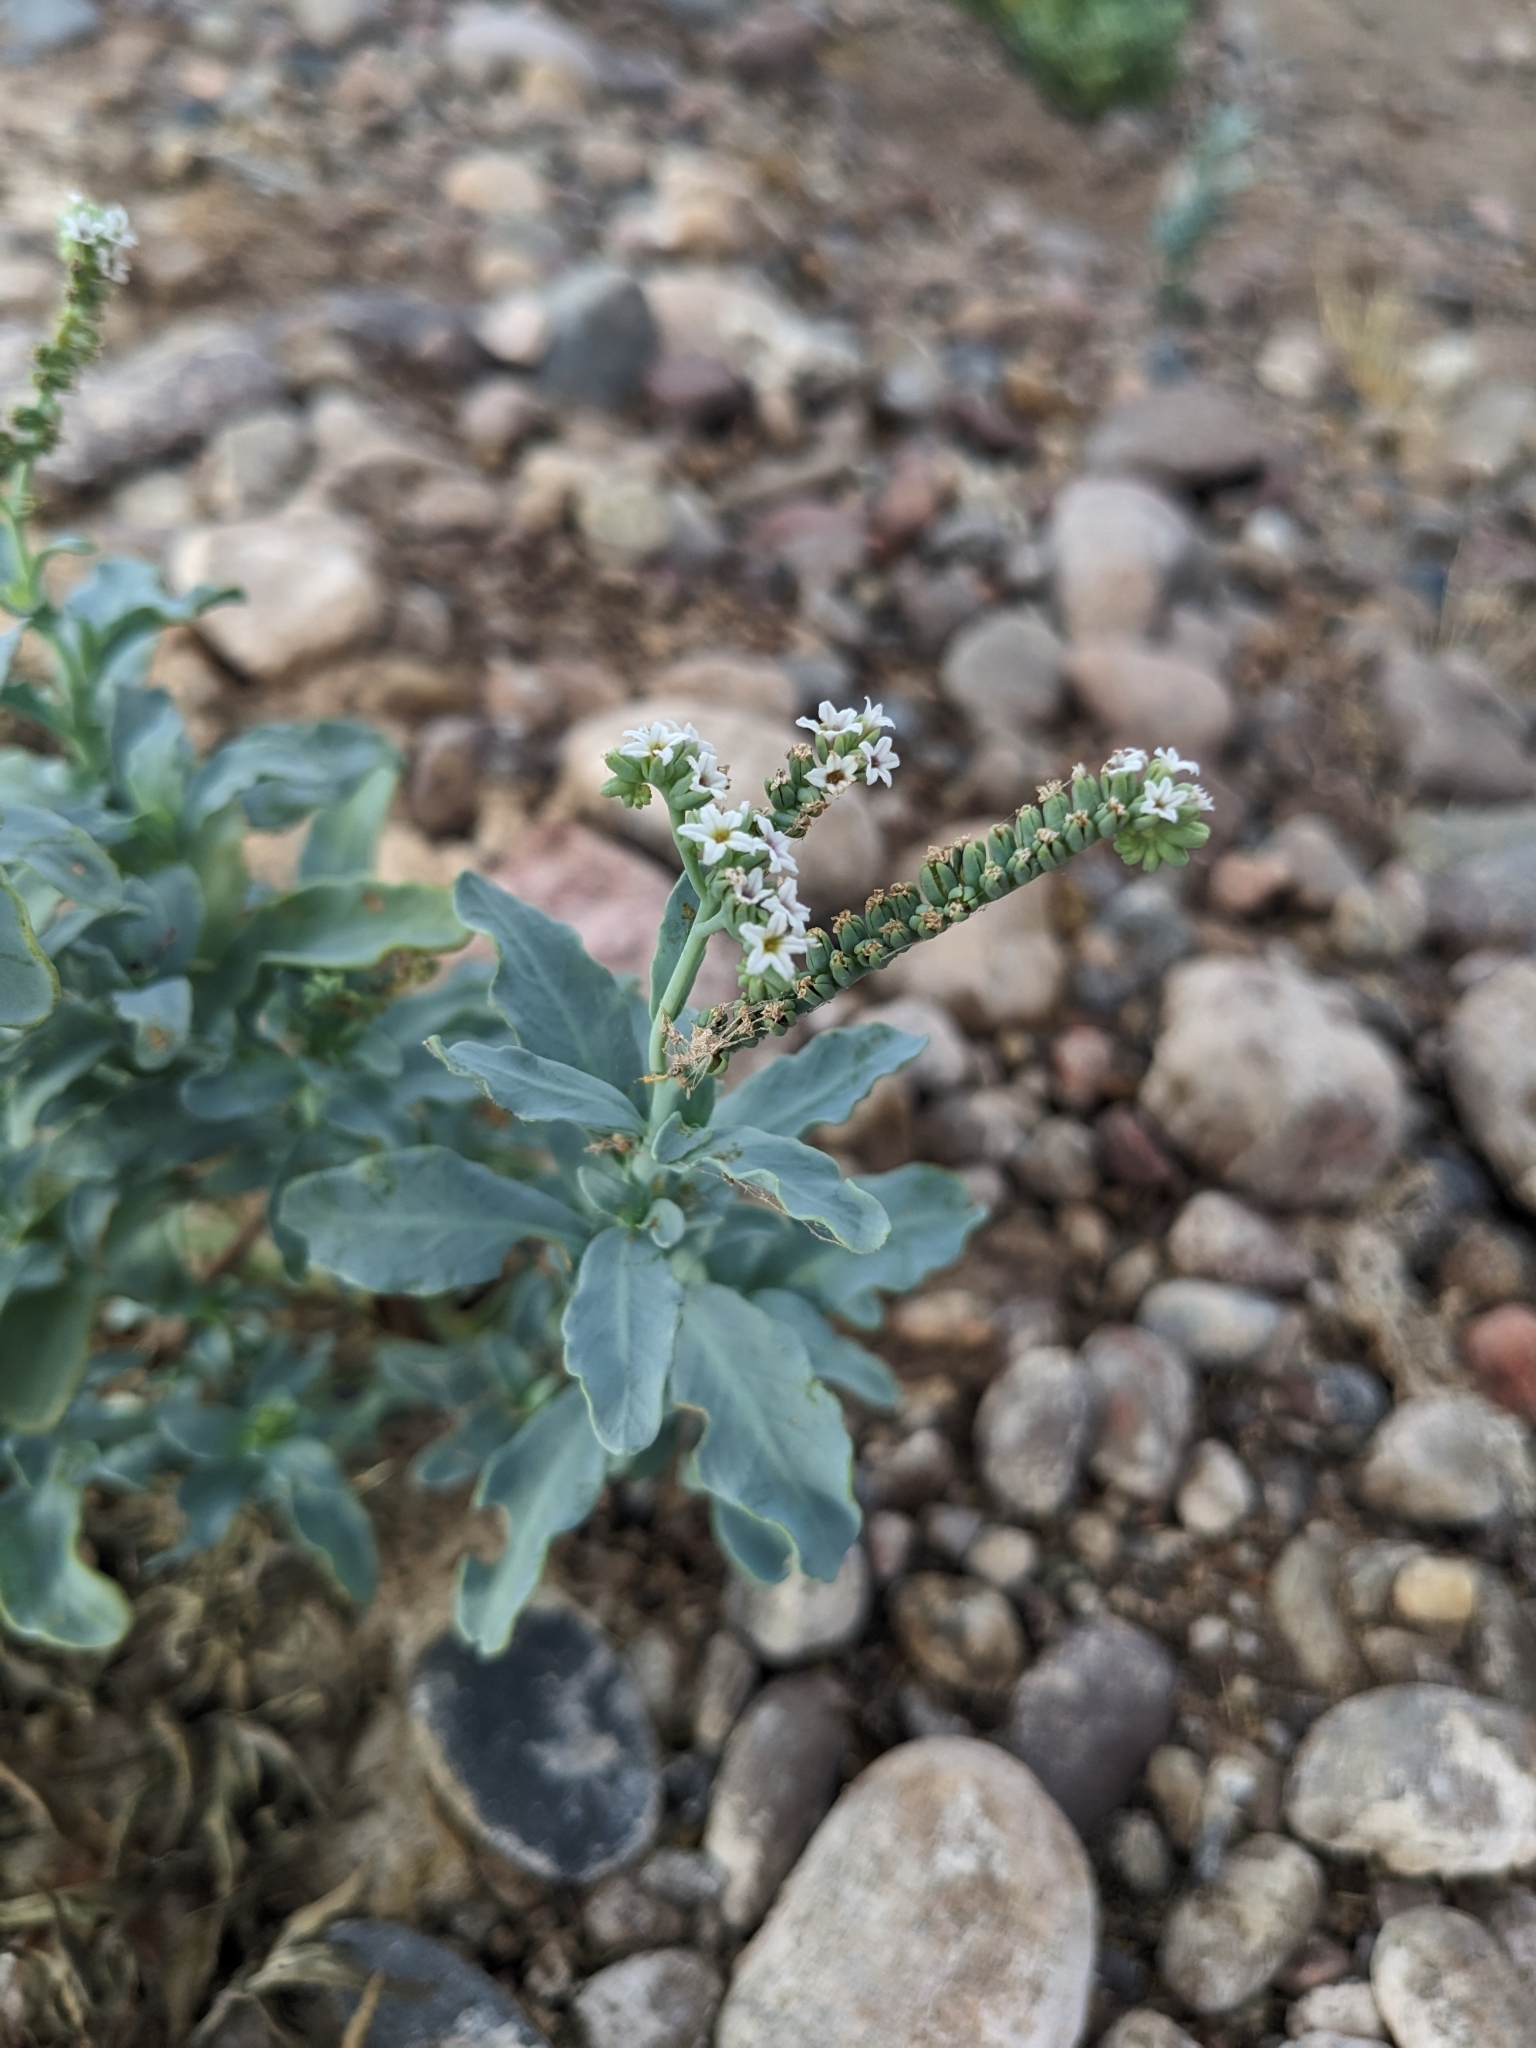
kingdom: Plantae
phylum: Tracheophyta
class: Magnoliopsida
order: Boraginales
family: Heliotropiaceae
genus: Heliotropium
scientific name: Heliotropium curassavicum
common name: Seaside heliotrope
